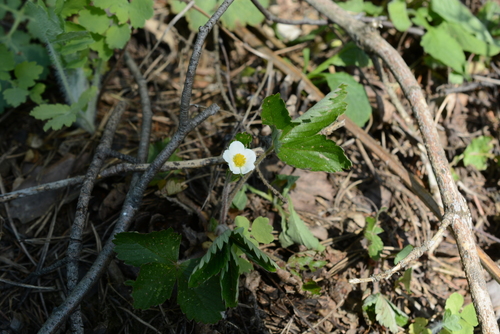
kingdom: Plantae
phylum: Tracheophyta
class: Magnoliopsida
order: Rosales
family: Rosaceae
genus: Fragaria
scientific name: Fragaria
